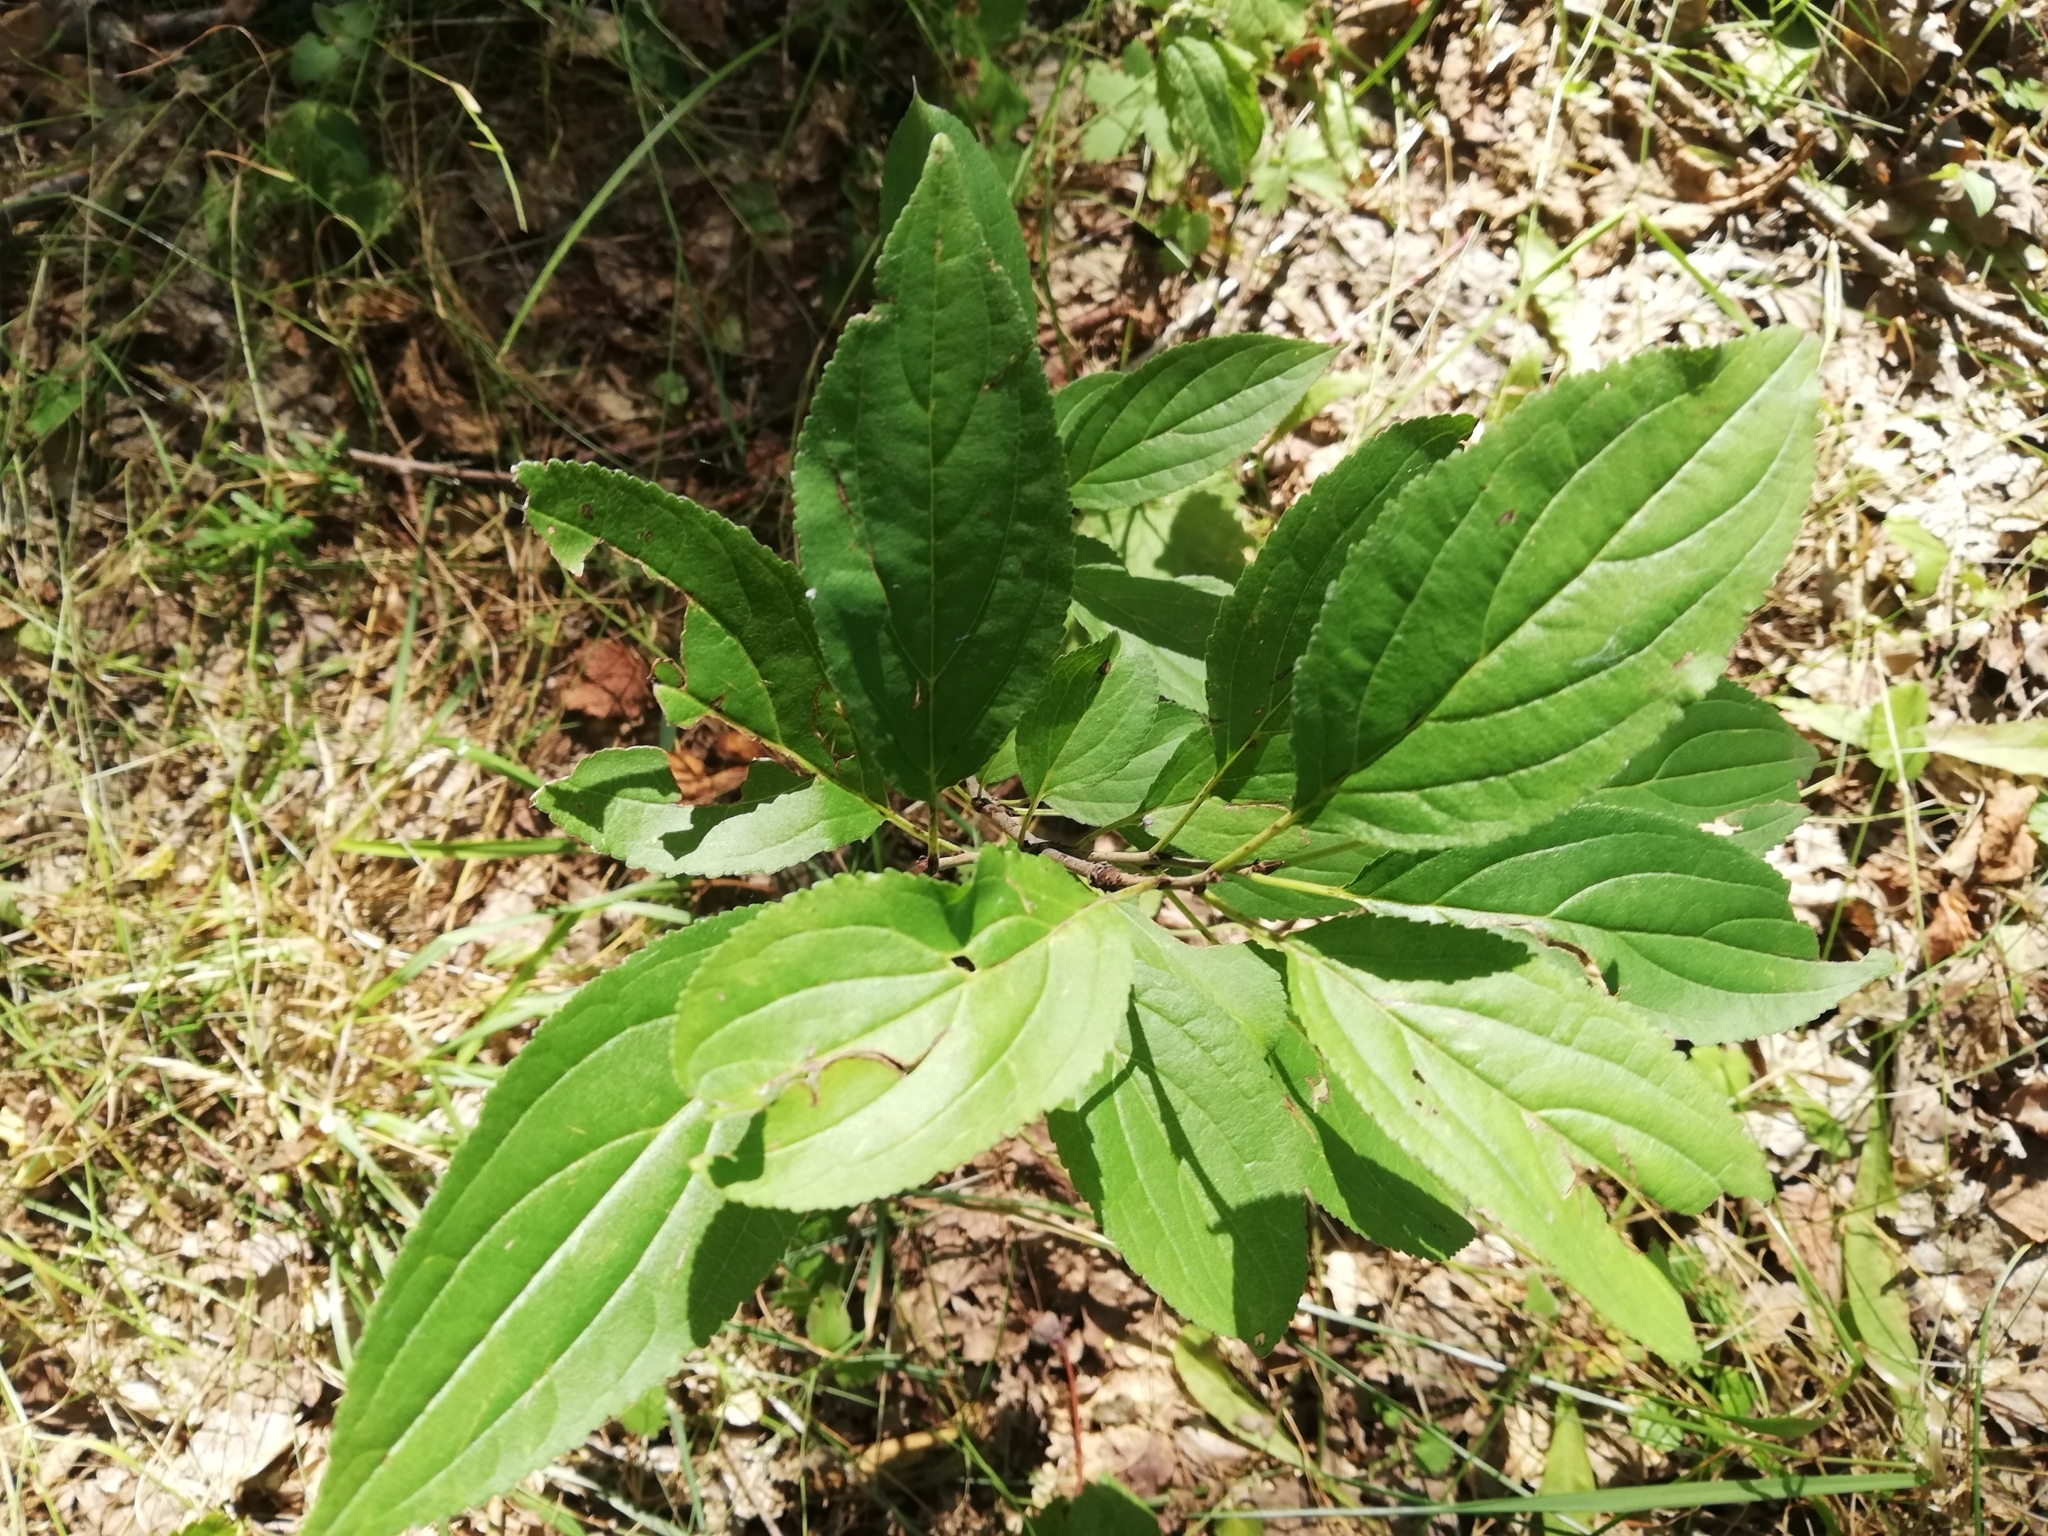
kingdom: Plantae
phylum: Tracheophyta
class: Magnoliopsida
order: Rosales
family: Rhamnaceae
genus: Rhamnus
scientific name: Rhamnus cathartica
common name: Common buckthorn
